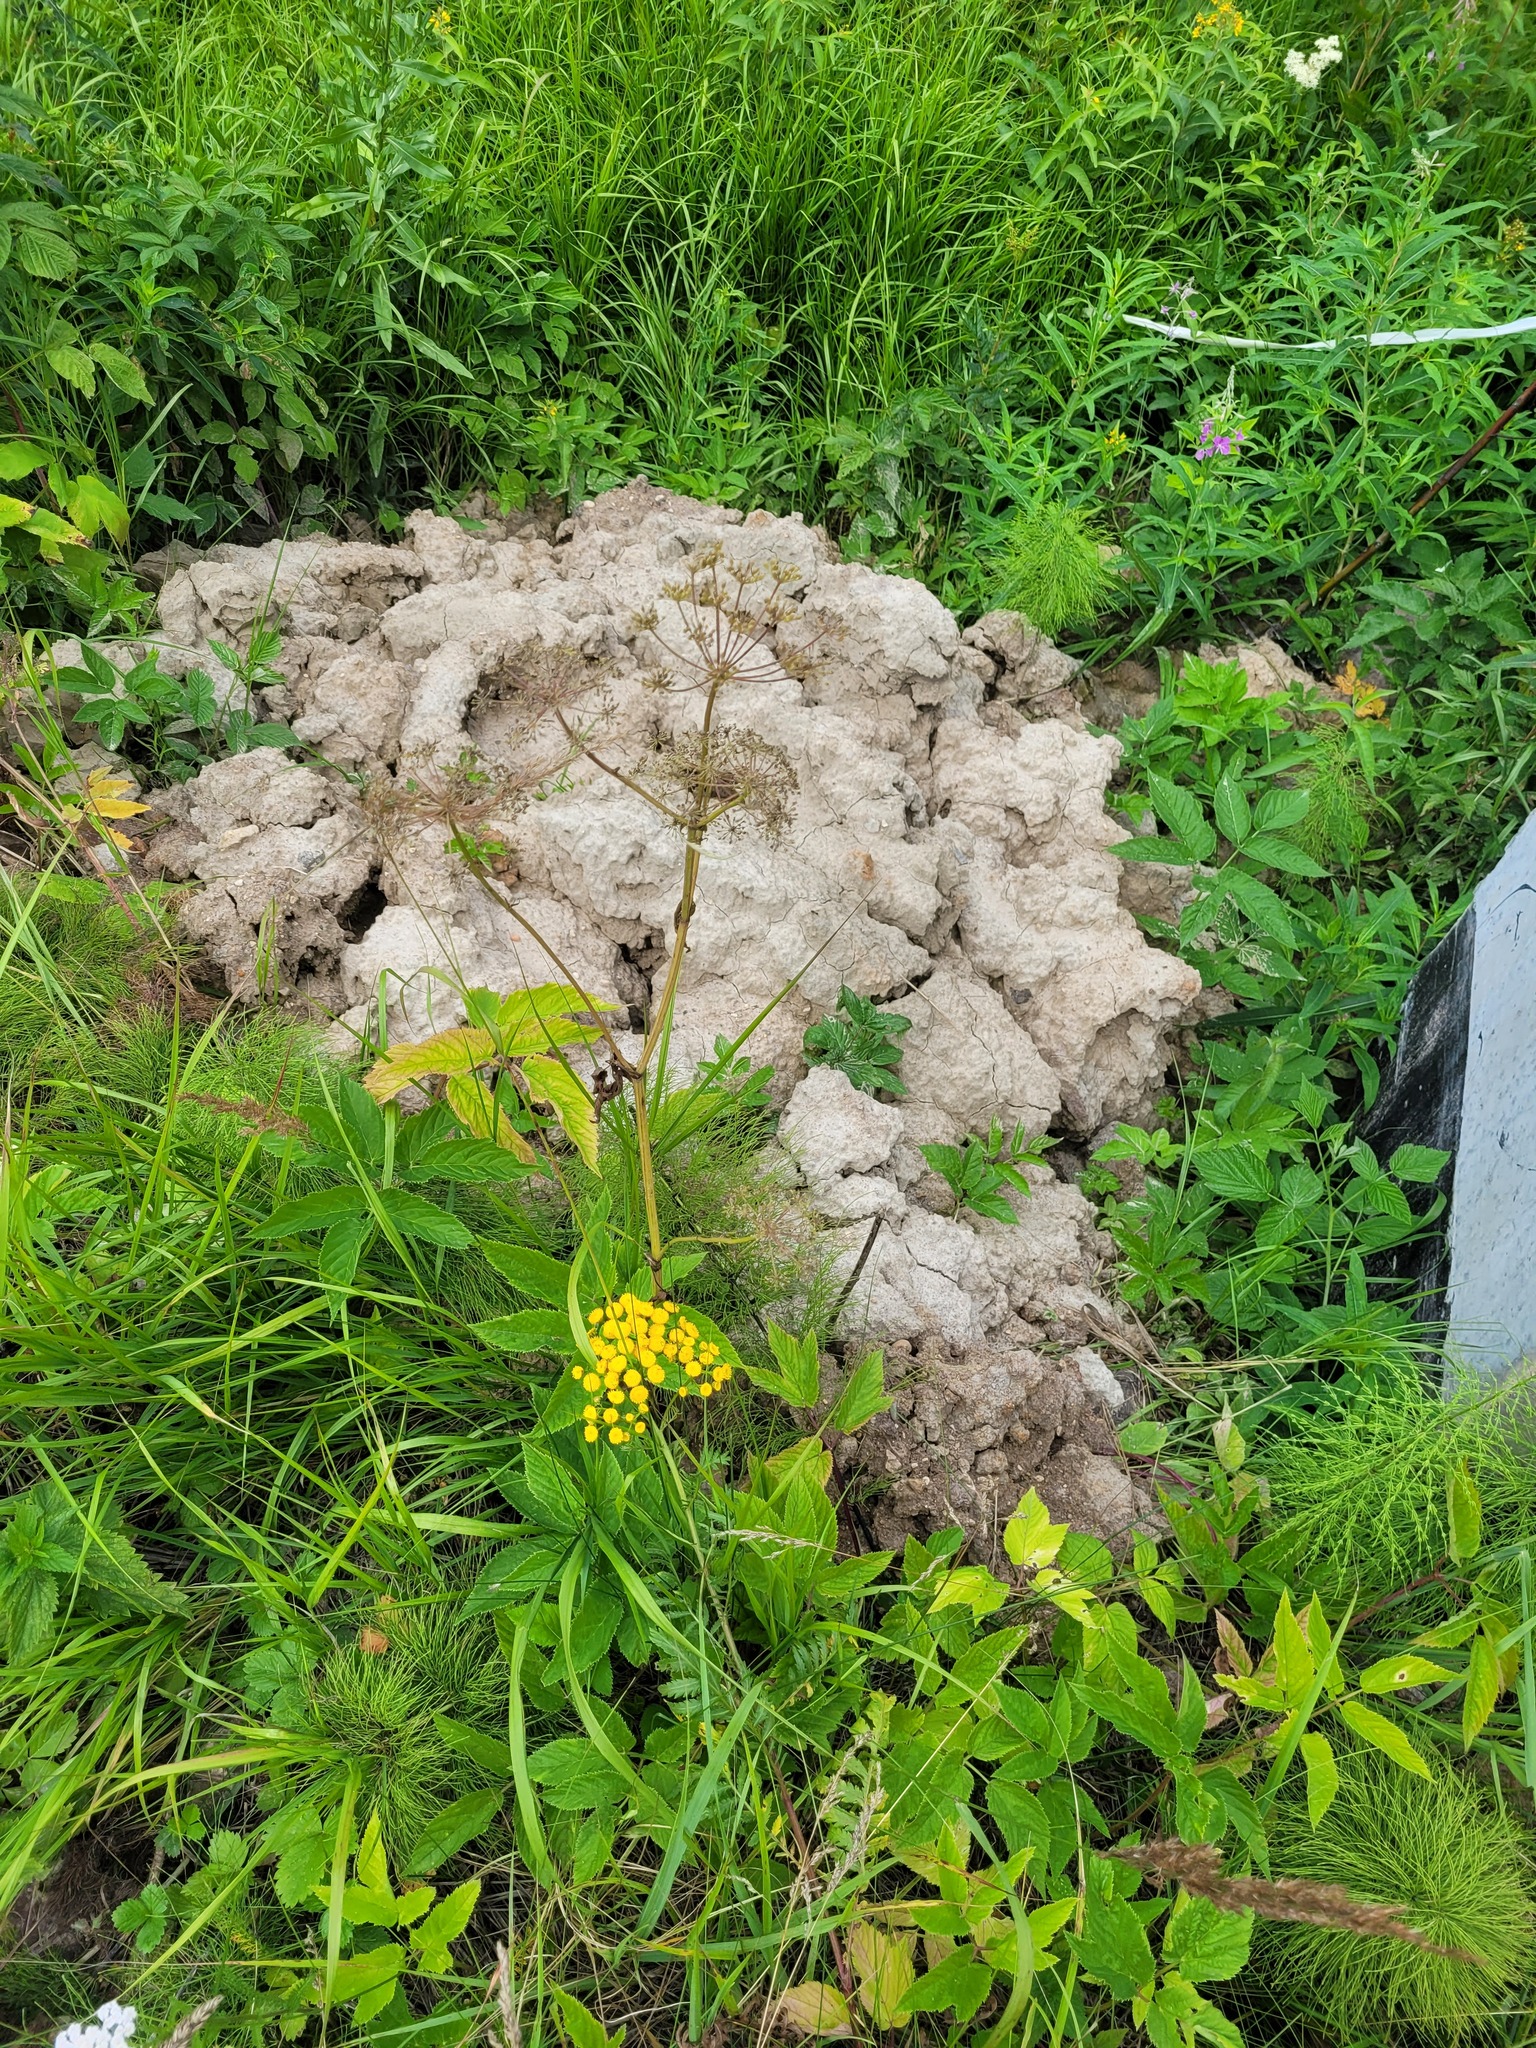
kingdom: Plantae
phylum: Tracheophyta
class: Magnoliopsida
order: Apiales
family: Apiaceae
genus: Aegopodium
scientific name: Aegopodium podagraria
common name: Ground-elder
